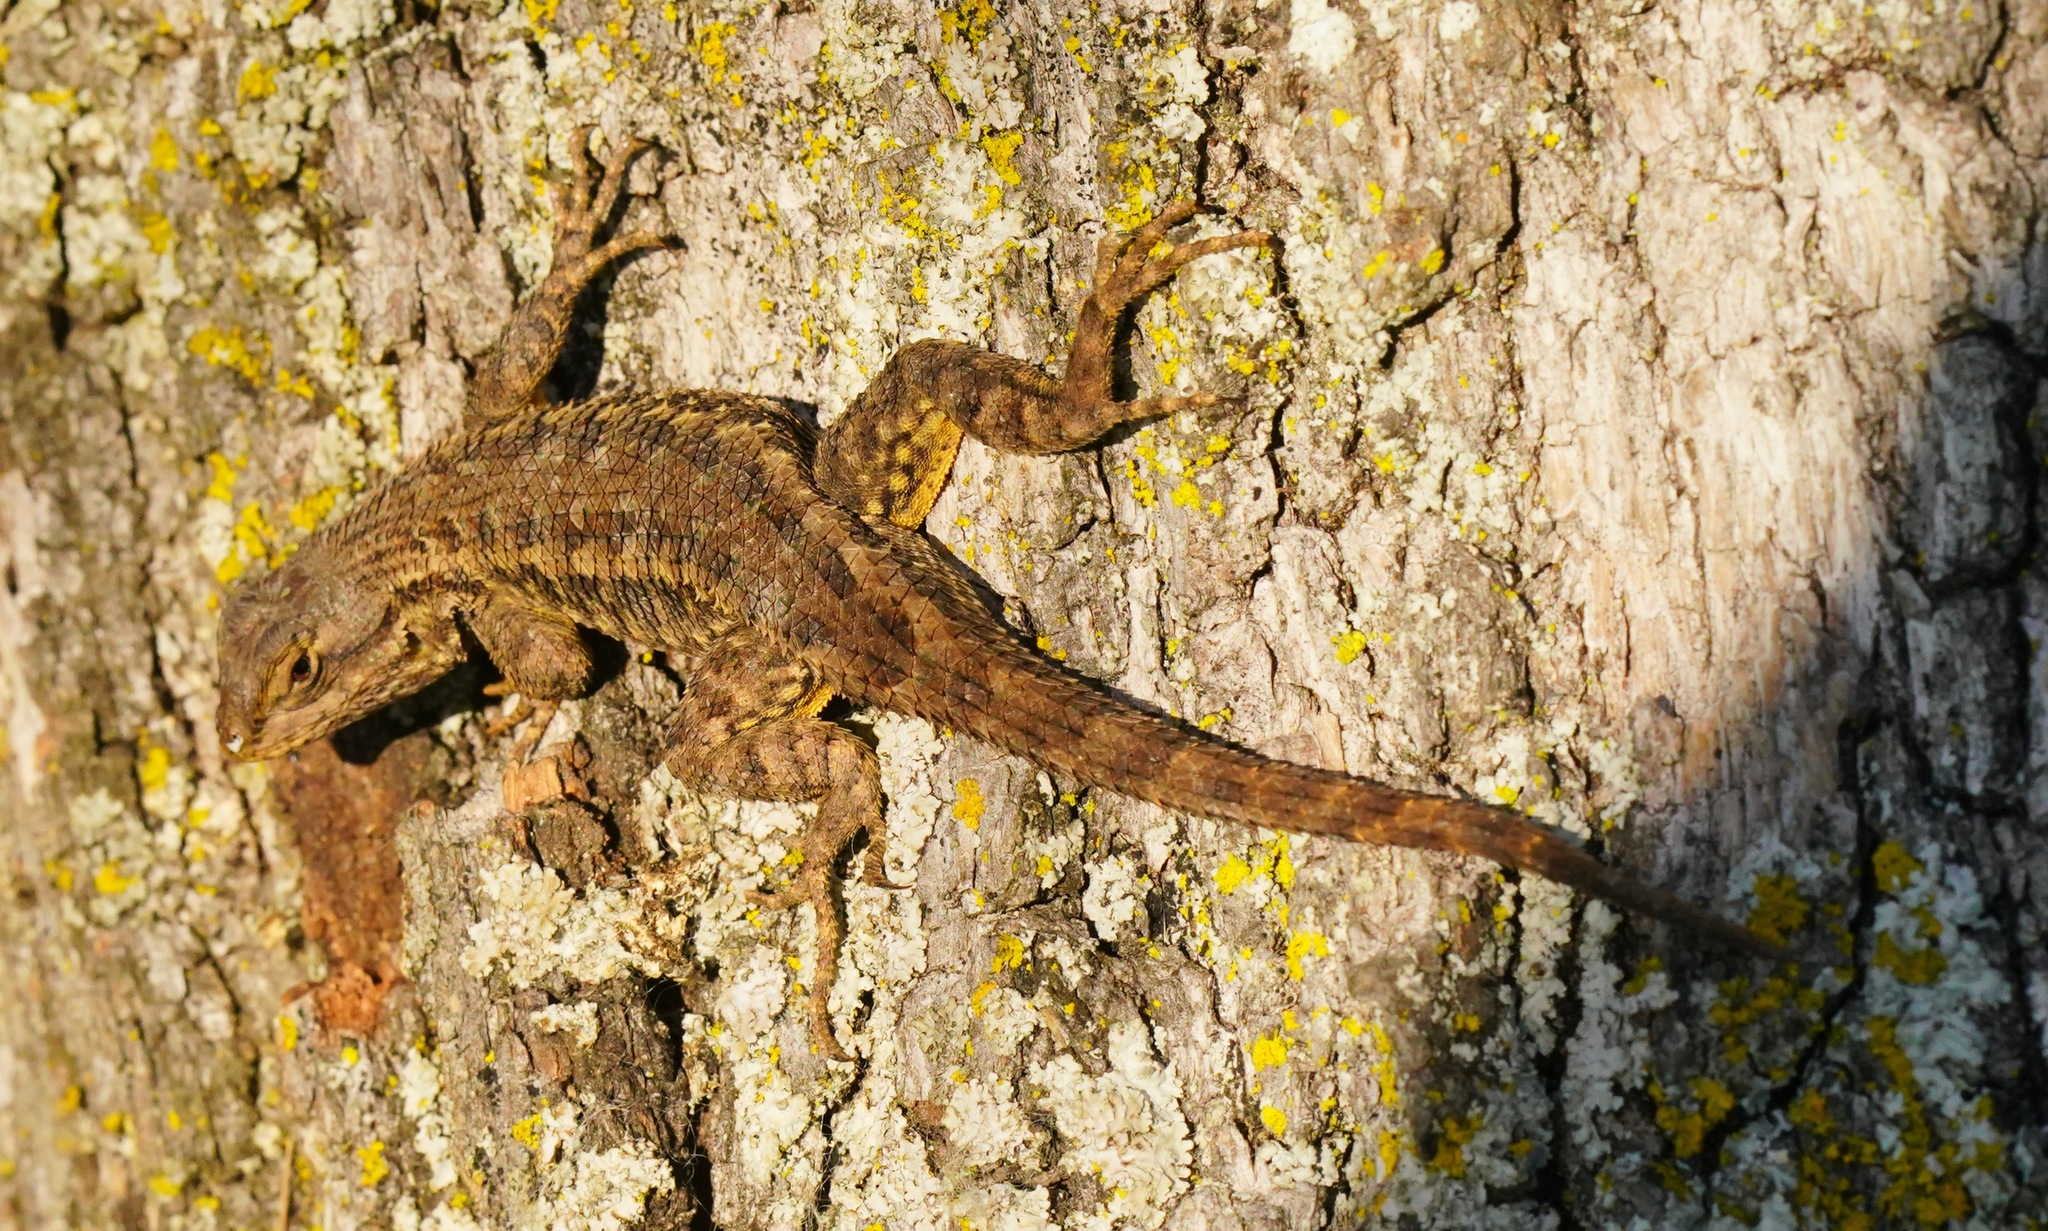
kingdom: Animalia
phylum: Chordata
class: Squamata
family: Phrynosomatidae
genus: Sceloporus
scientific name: Sceloporus occidentalis
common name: Western fence lizard
